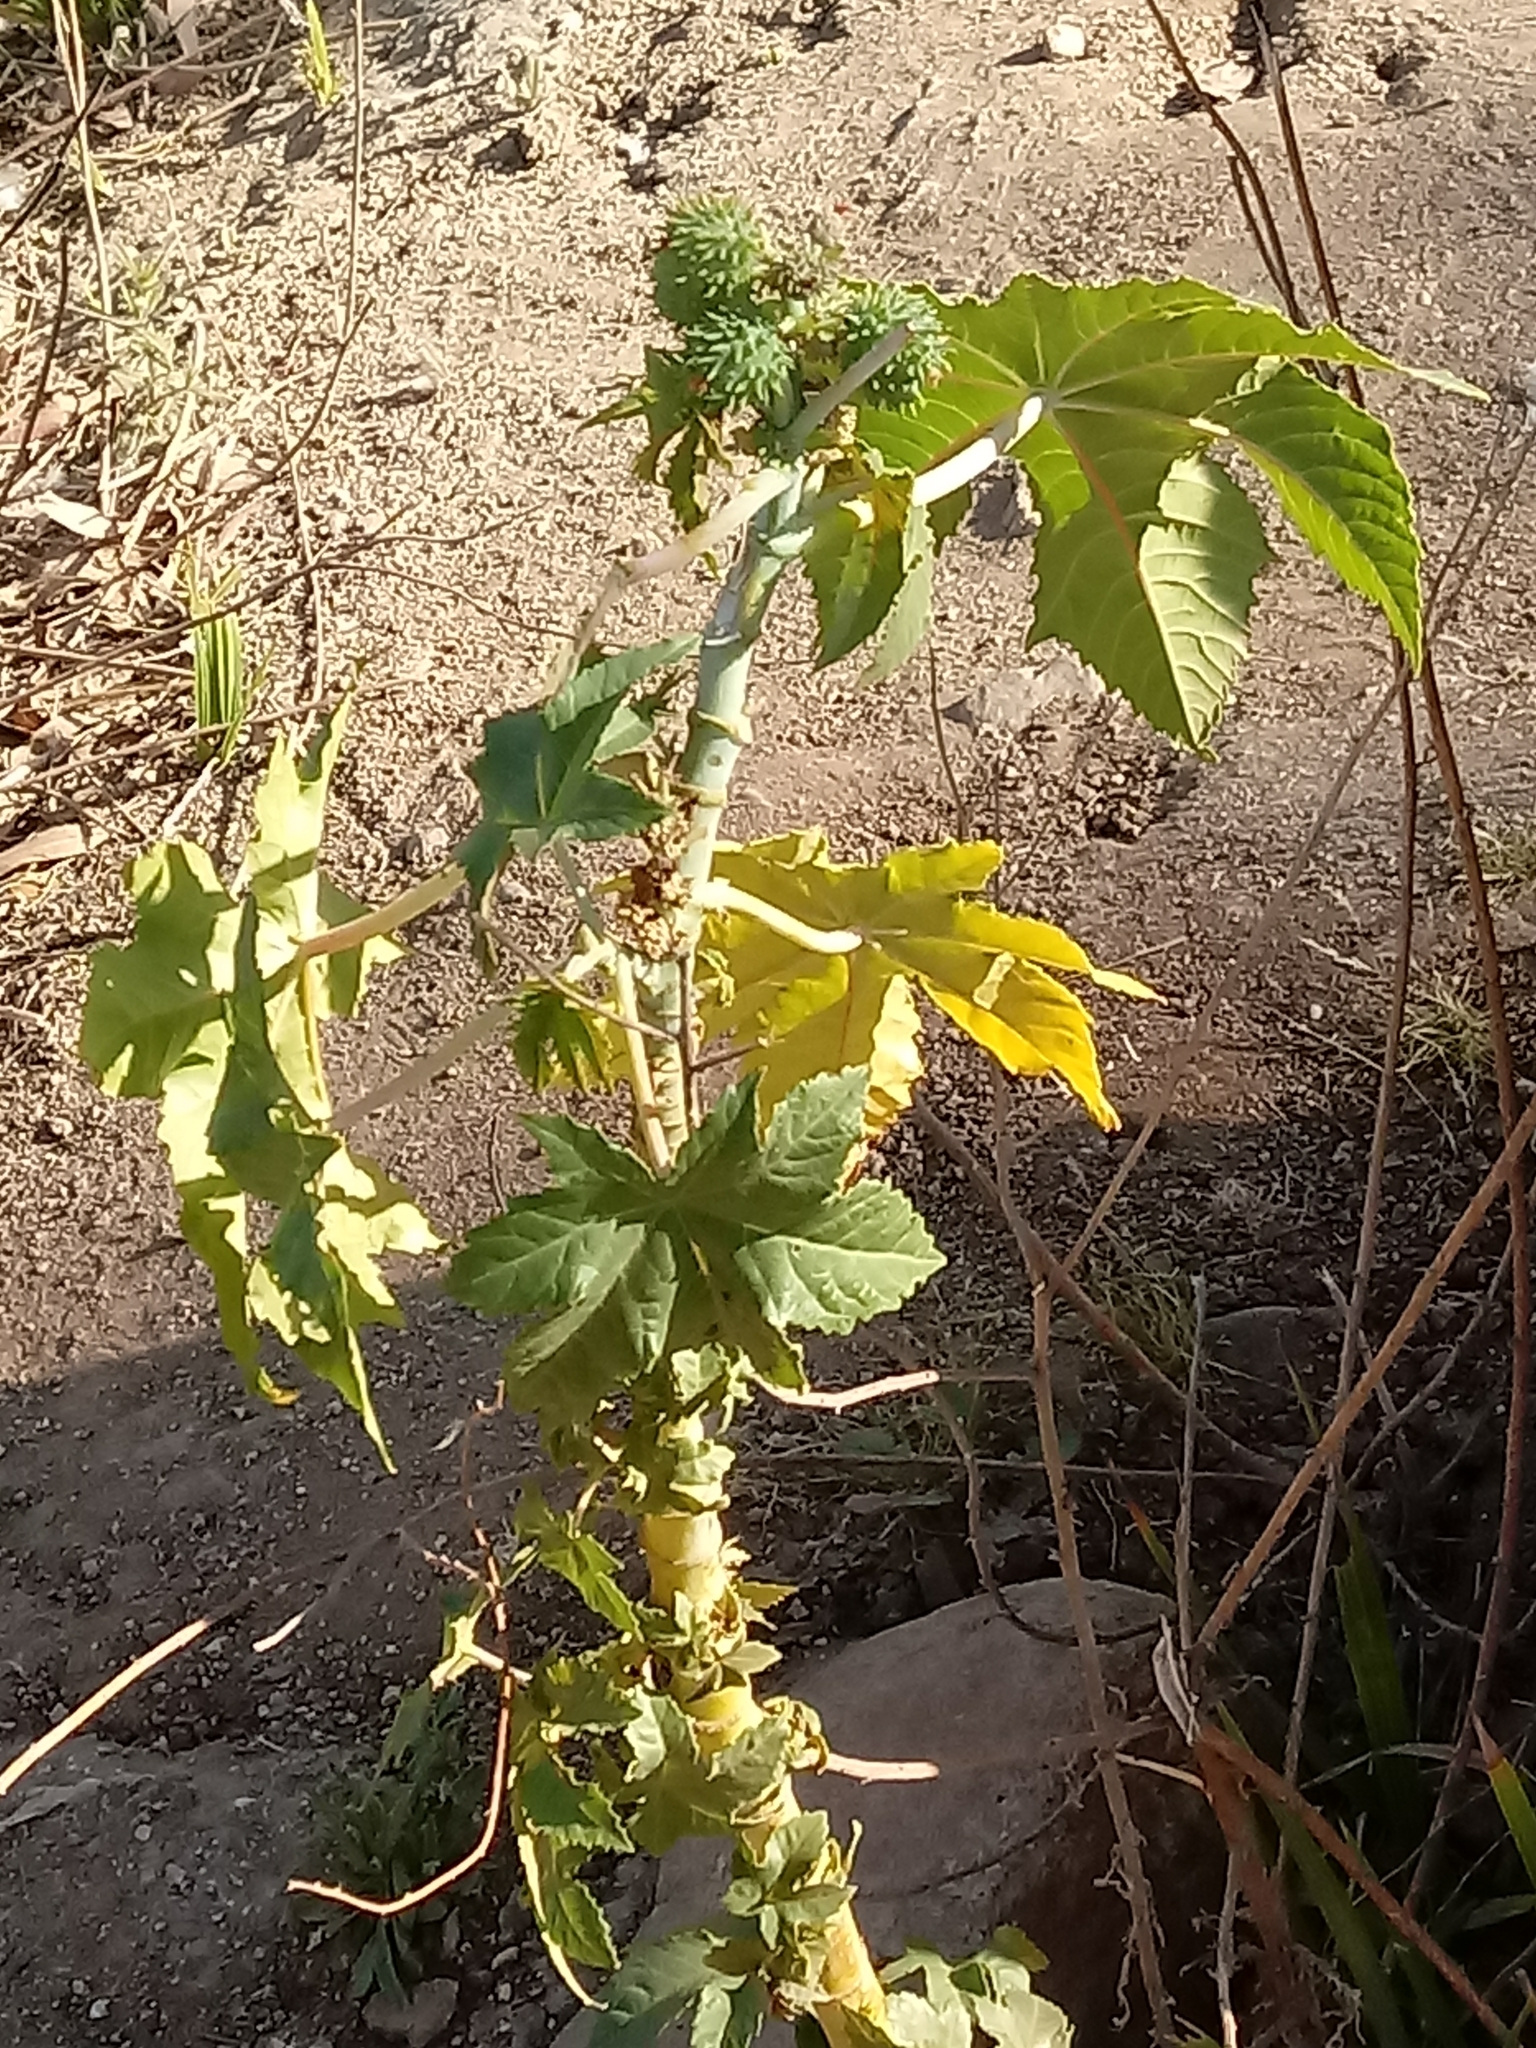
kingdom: Plantae
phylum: Tracheophyta
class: Magnoliopsida
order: Malpighiales
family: Euphorbiaceae
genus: Ricinus
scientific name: Ricinus communis
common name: Castor-oil-plant
